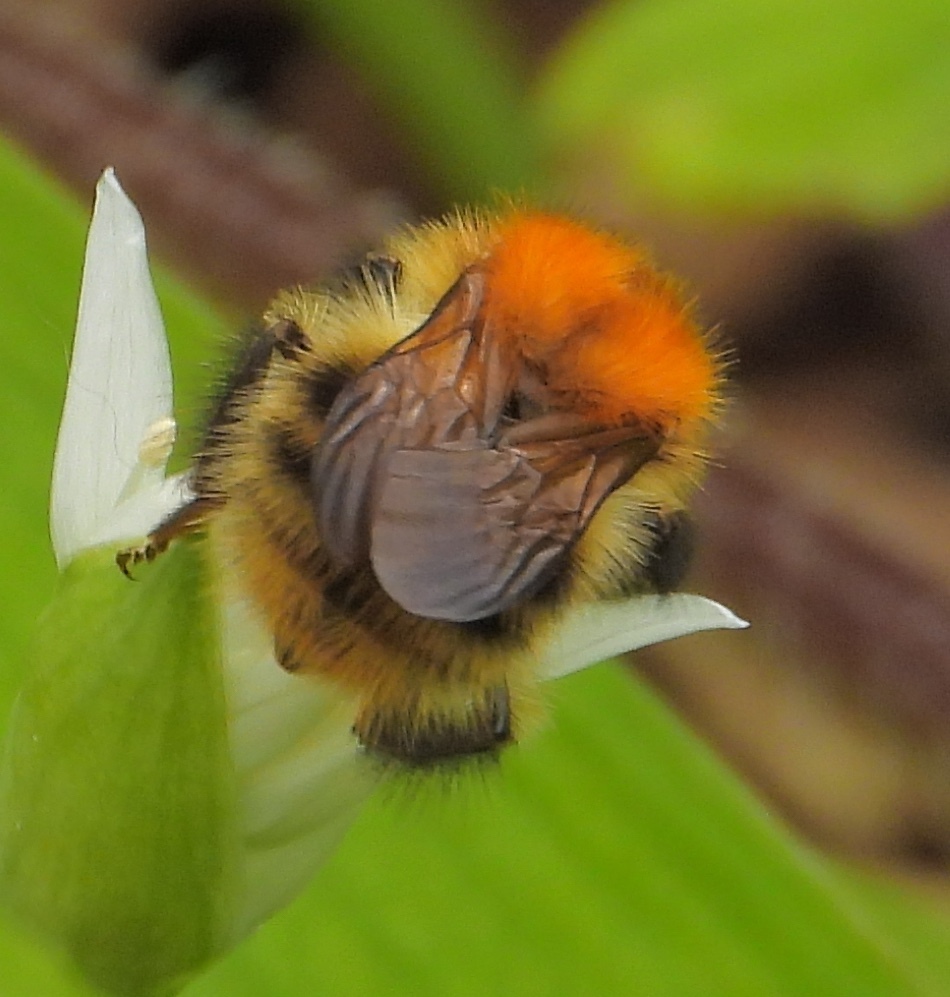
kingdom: Animalia
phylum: Arthropoda
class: Insecta
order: Hymenoptera
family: Apidae
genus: Bombus
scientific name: Bombus pascuorum
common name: Common carder bee
